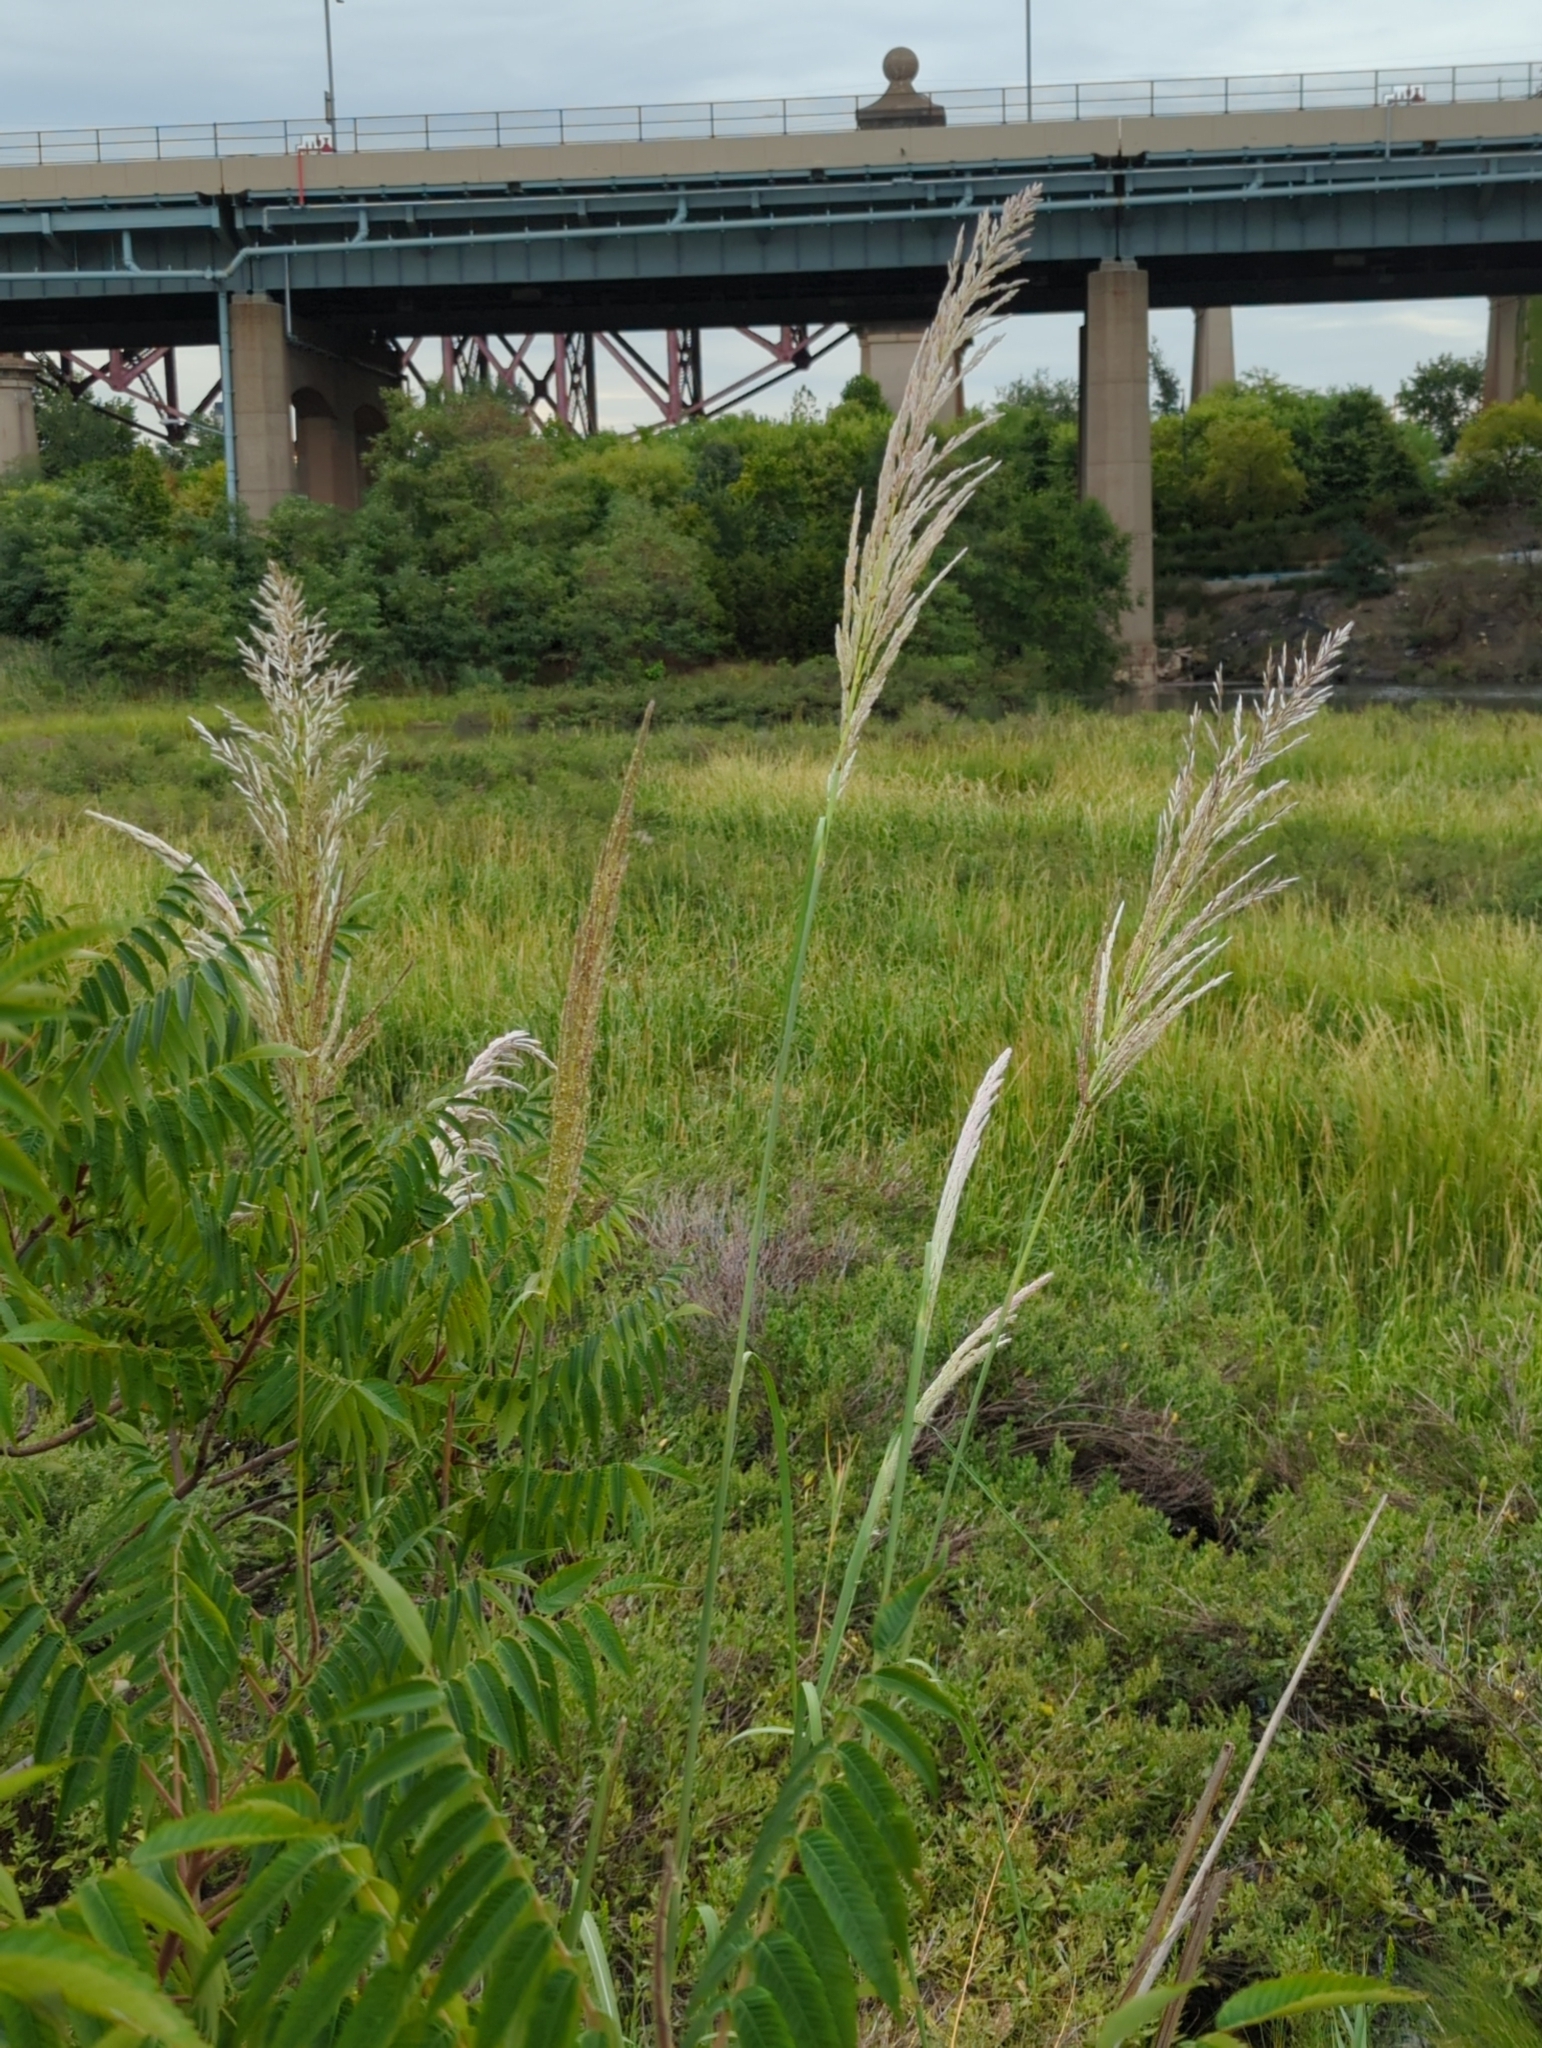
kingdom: Plantae
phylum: Tracheophyta
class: Liliopsida
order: Poales
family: Poaceae
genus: Tripidium
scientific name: Tripidium ravennae
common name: Ravenna grass
